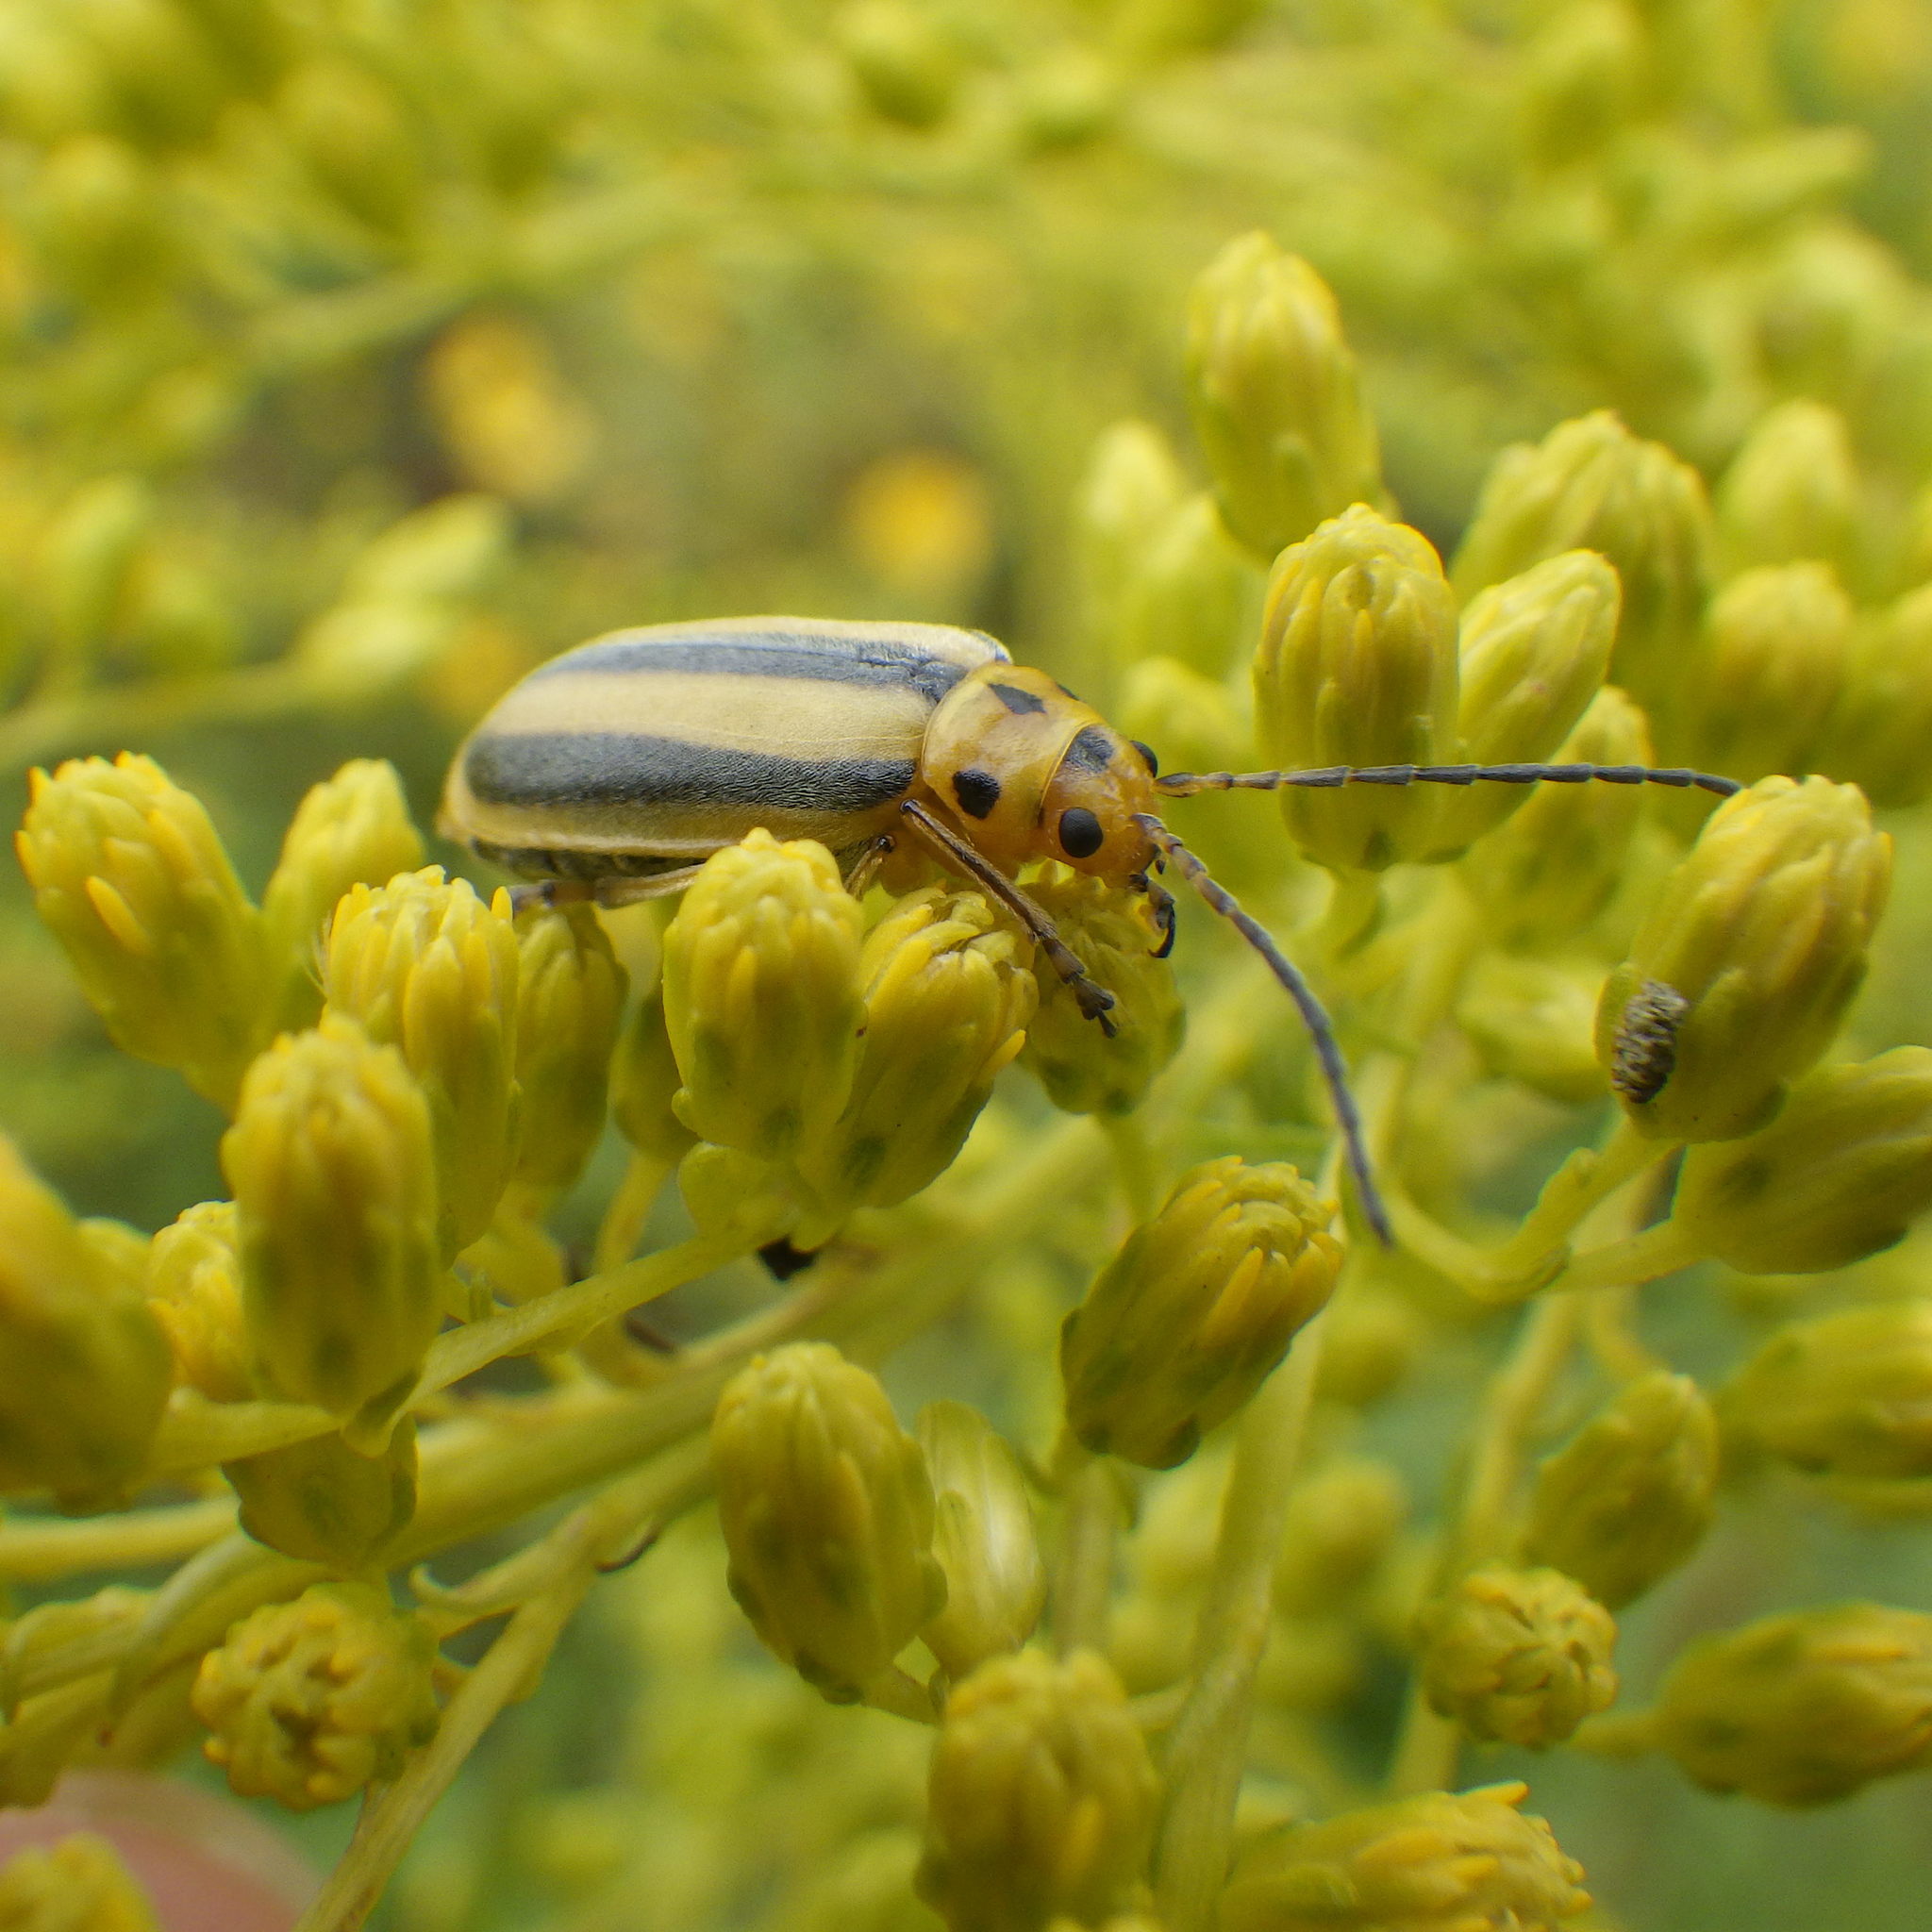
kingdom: Animalia
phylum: Arthropoda
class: Insecta
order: Coleoptera
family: Chrysomelidae
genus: Trirhabda
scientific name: Trirhabda canadensis
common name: Goldenrod leaf beetle
